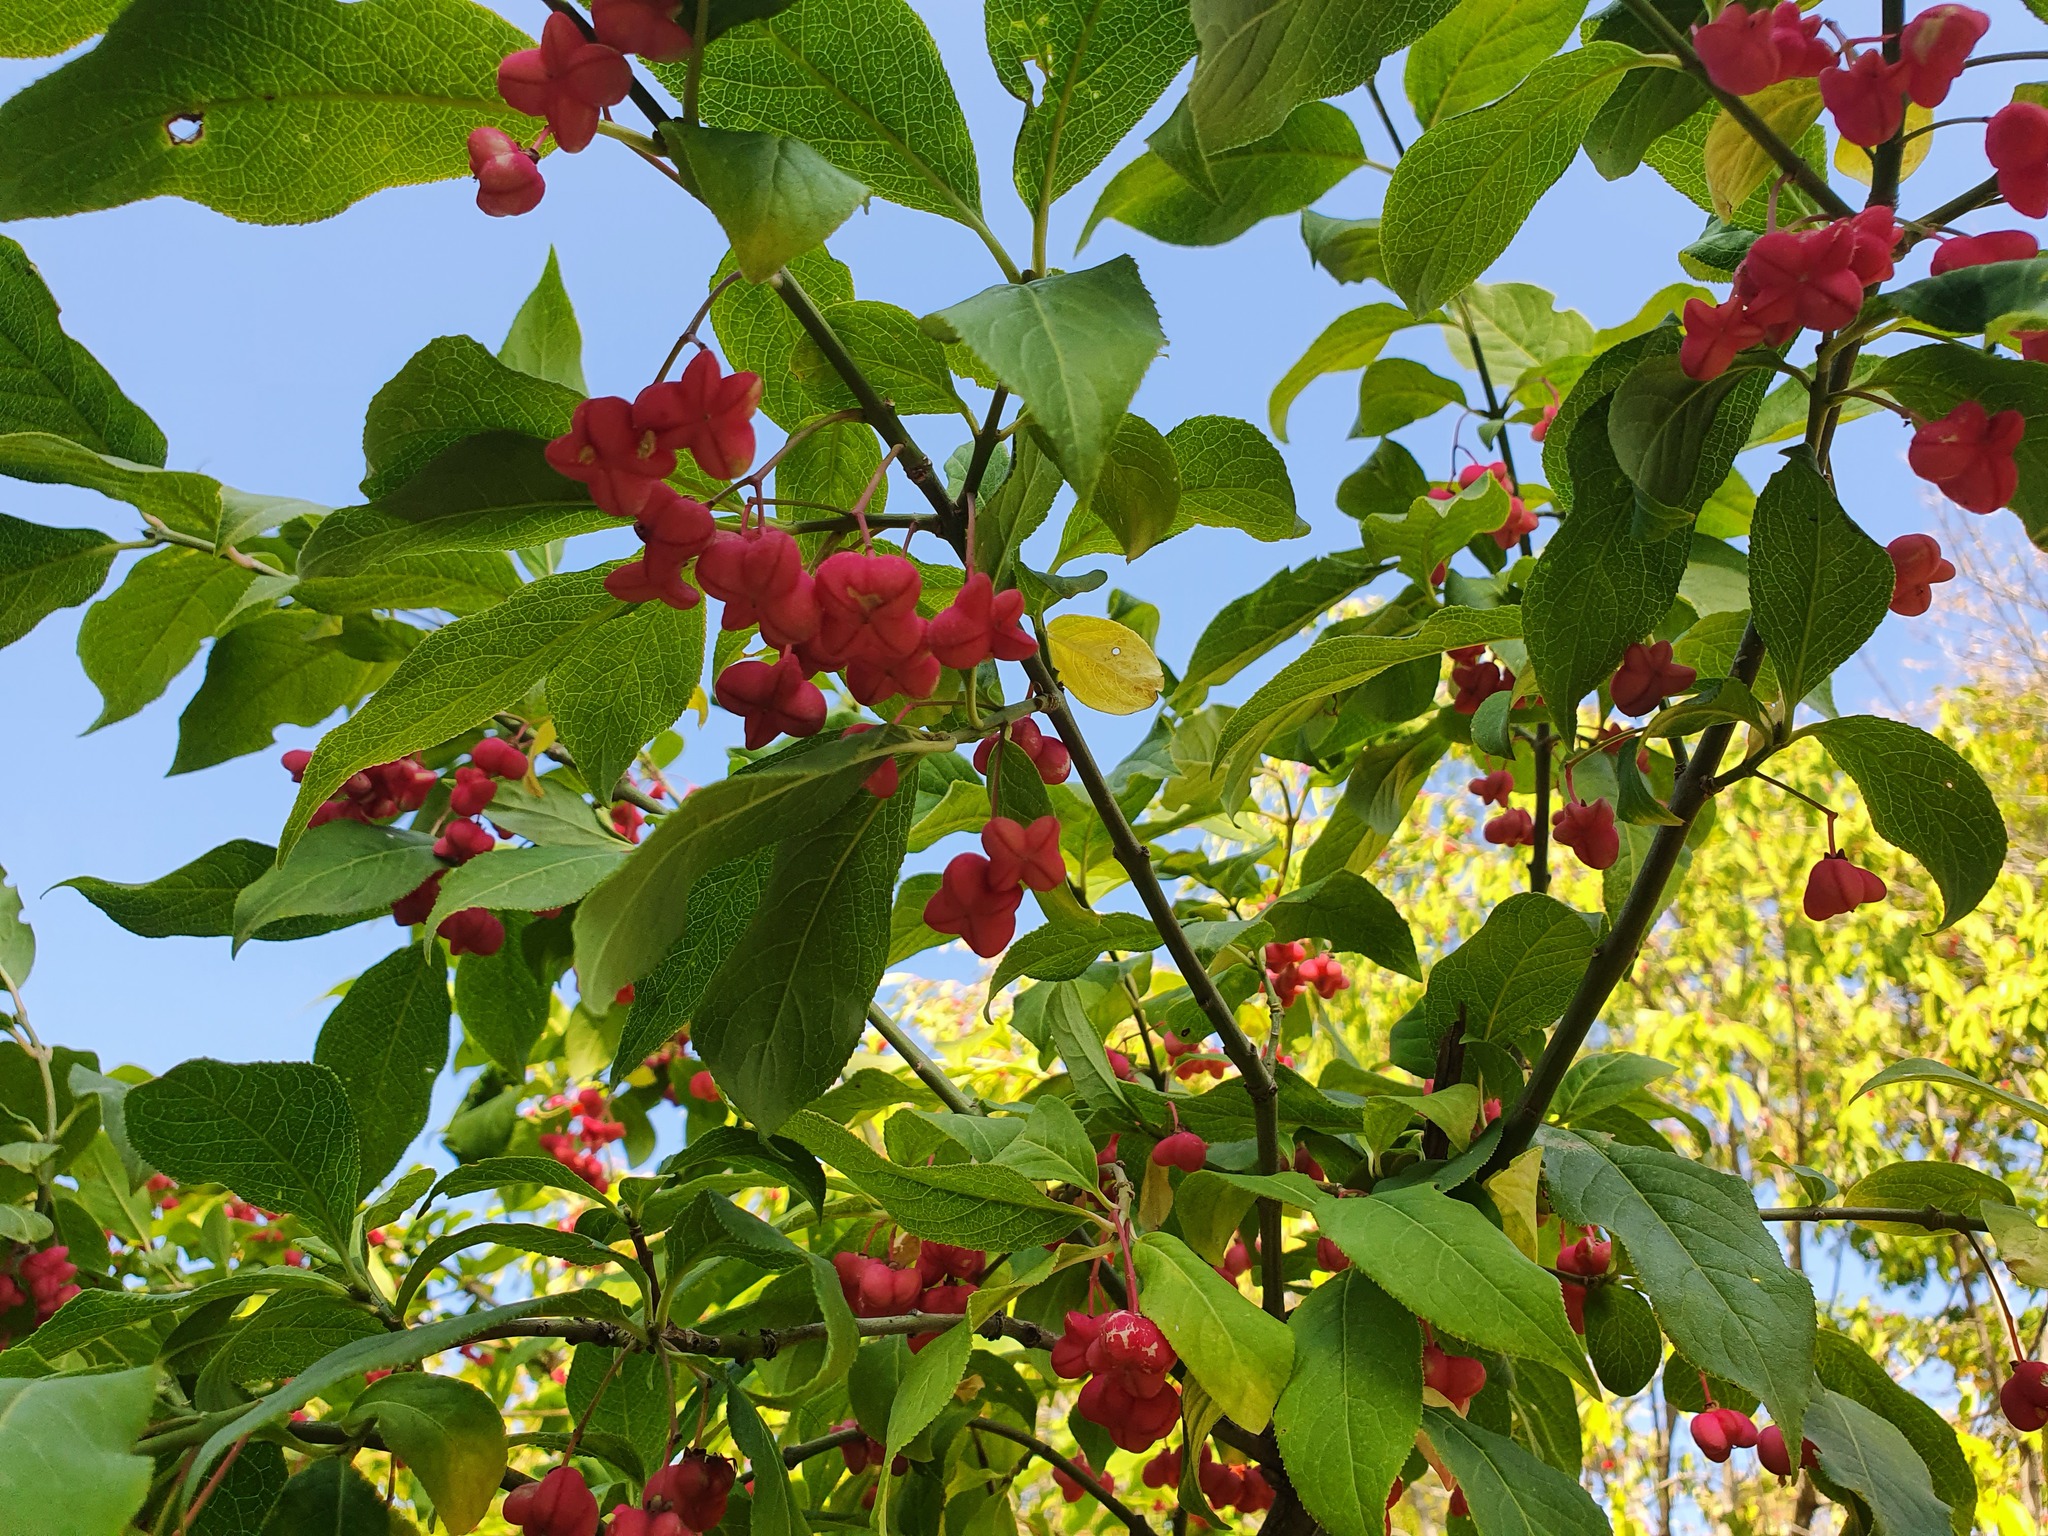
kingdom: Plantae
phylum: Tracheophyta
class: Magnoliopsida
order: Celastrales
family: Celastraceae
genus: Euonymus
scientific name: Euonymus europaeus
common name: Spindle
